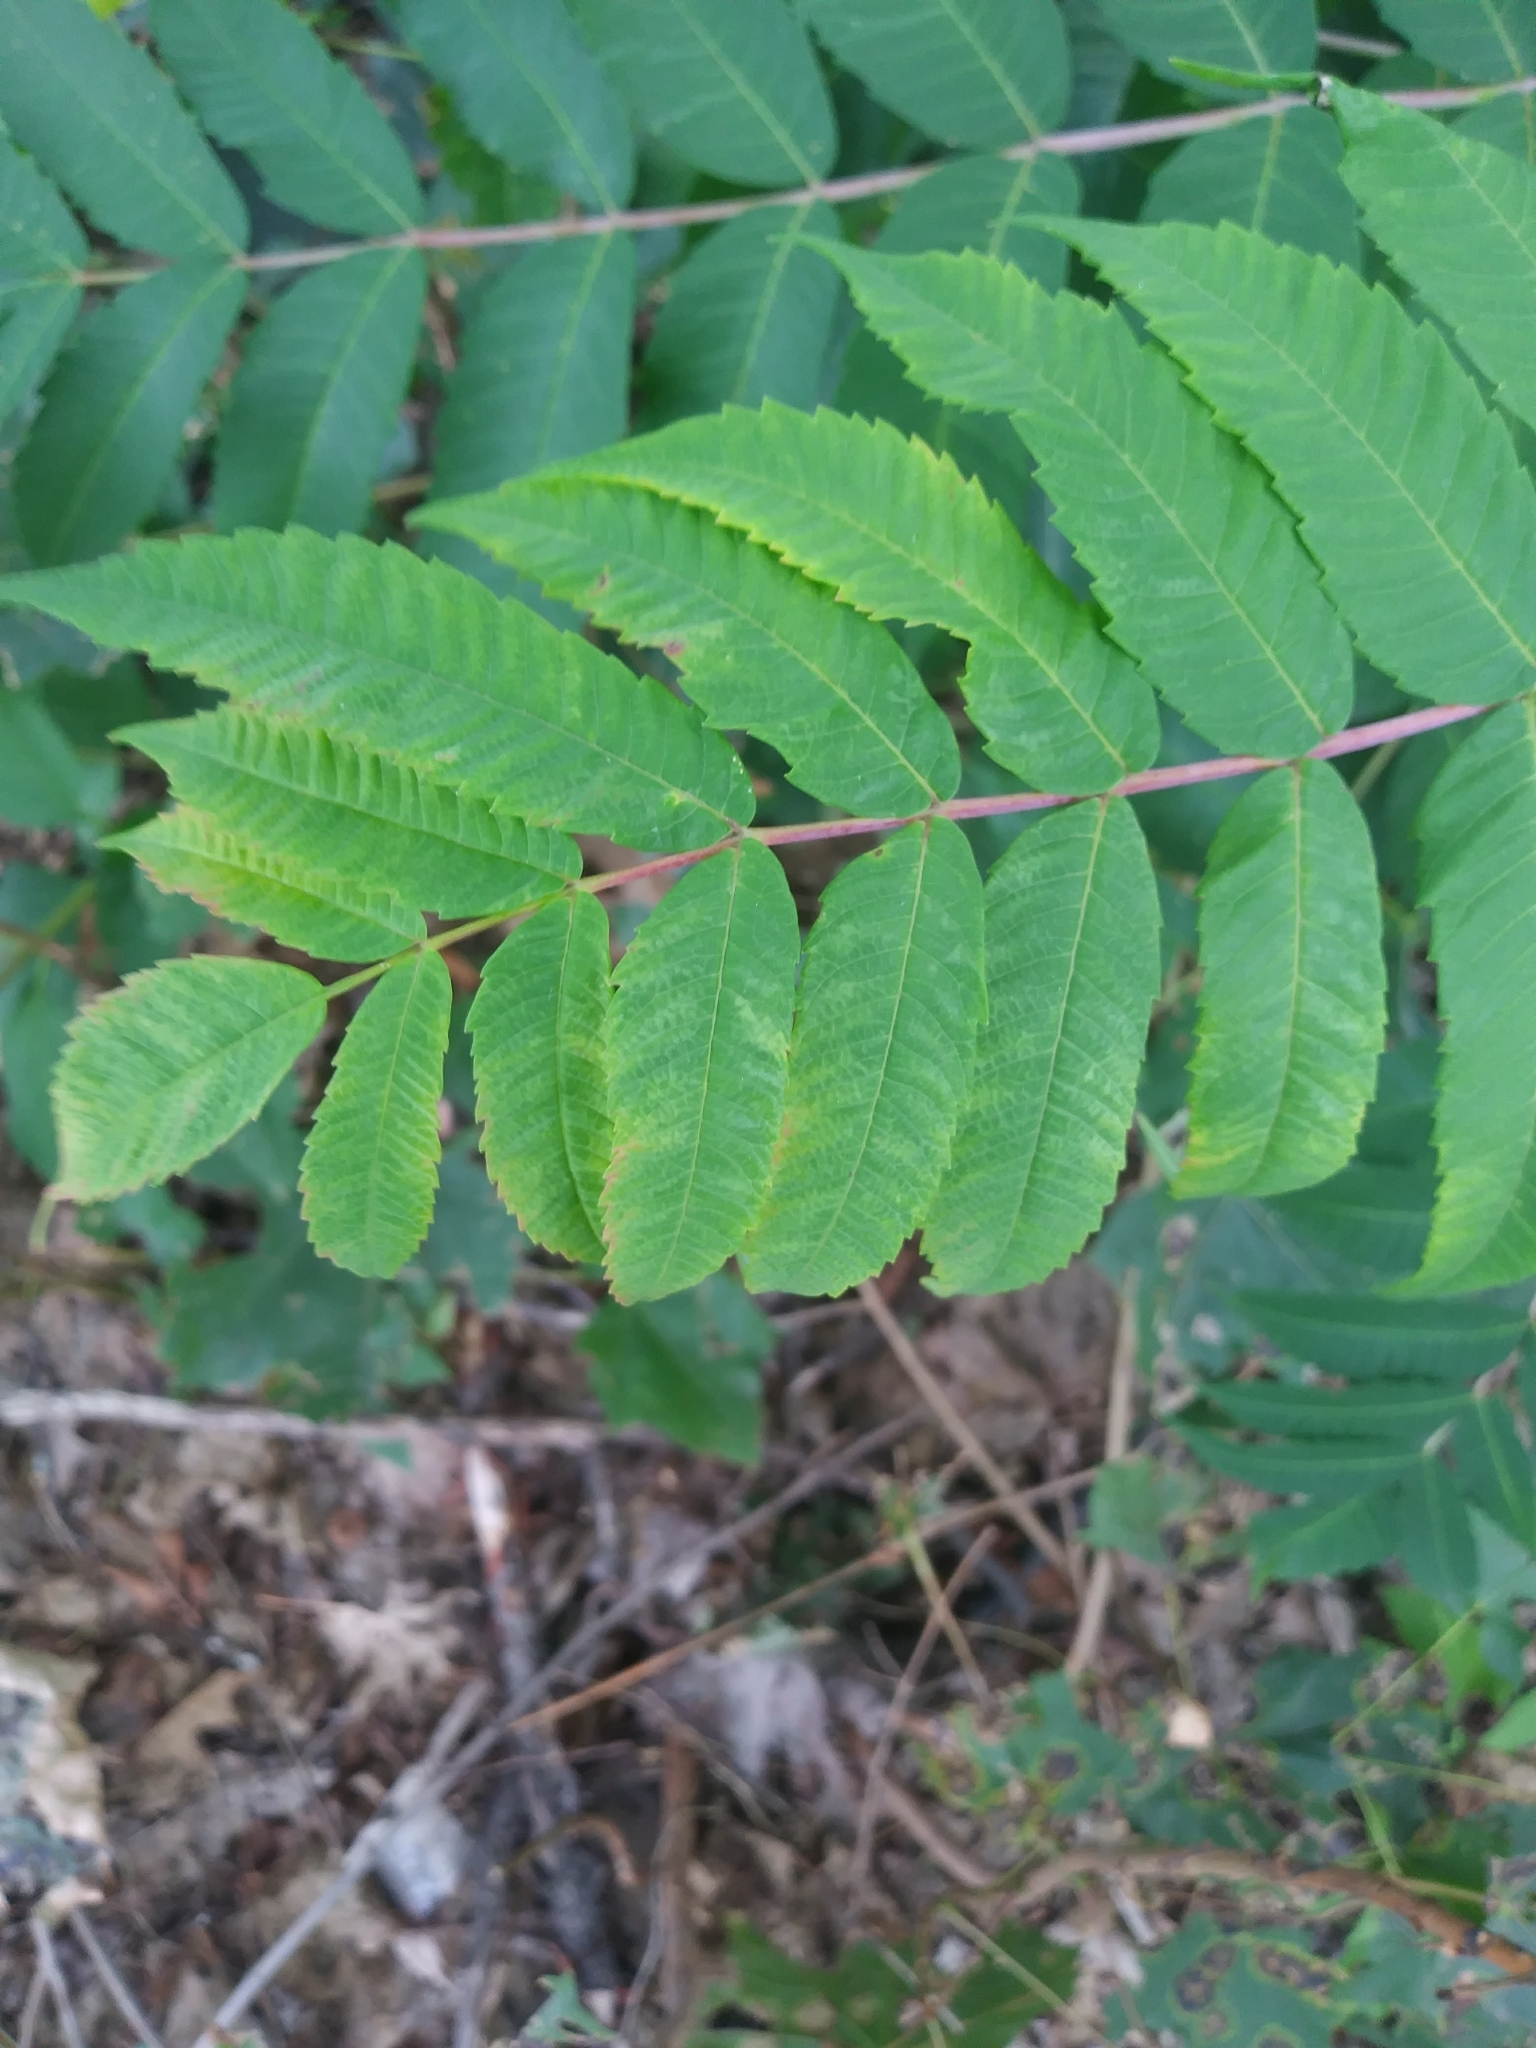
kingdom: Plantae
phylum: Tracheophyta
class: Magnoliopsida
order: Sapindales
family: Anacardiaceae
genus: Rhus
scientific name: Rhus glabra
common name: Scarlet sumac
